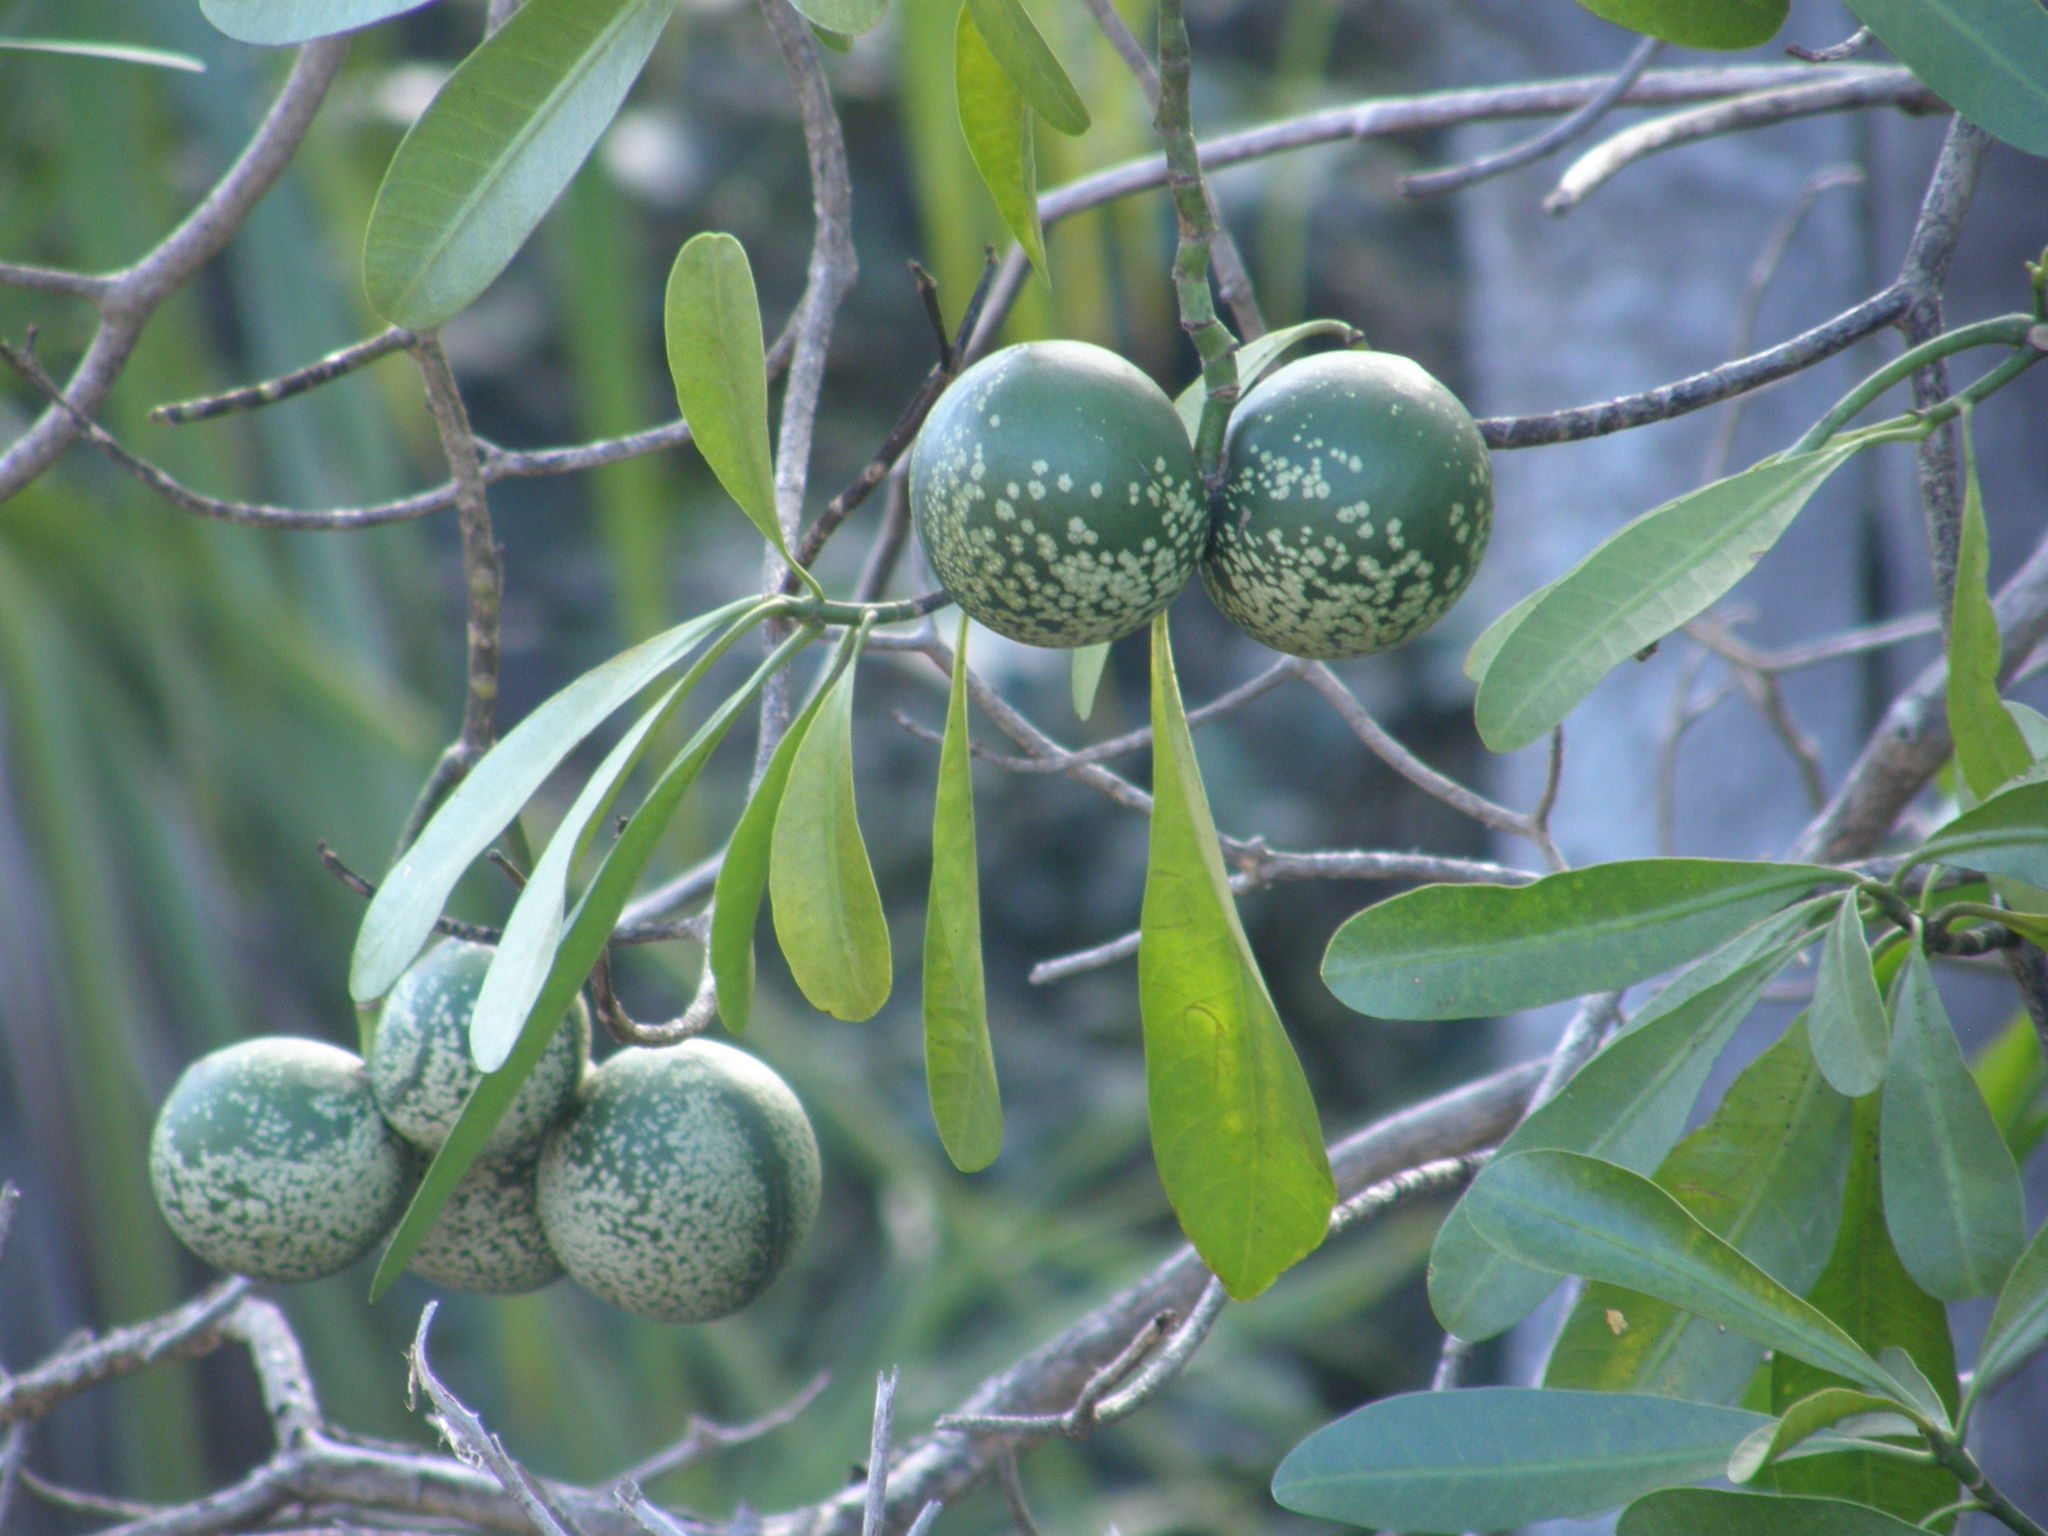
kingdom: Plantae
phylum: Tracheophyta
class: Magnoliopsida
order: Gentianales
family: Apocynaceae
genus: Voacanga
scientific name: Voacanga thouarsii
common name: Wild frangipani
